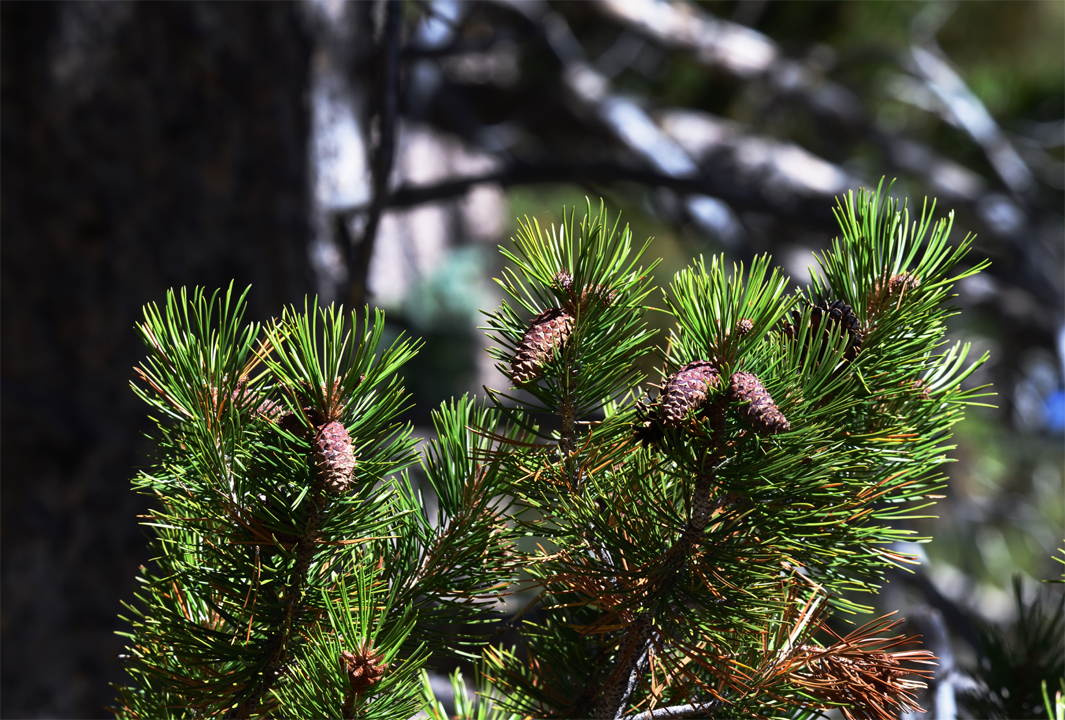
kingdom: Plantae
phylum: Tracheophyta
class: Pinopsida
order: Pinales
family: Pinaceae
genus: Pinus
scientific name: Pinus contorta
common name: Lodgepole pine
